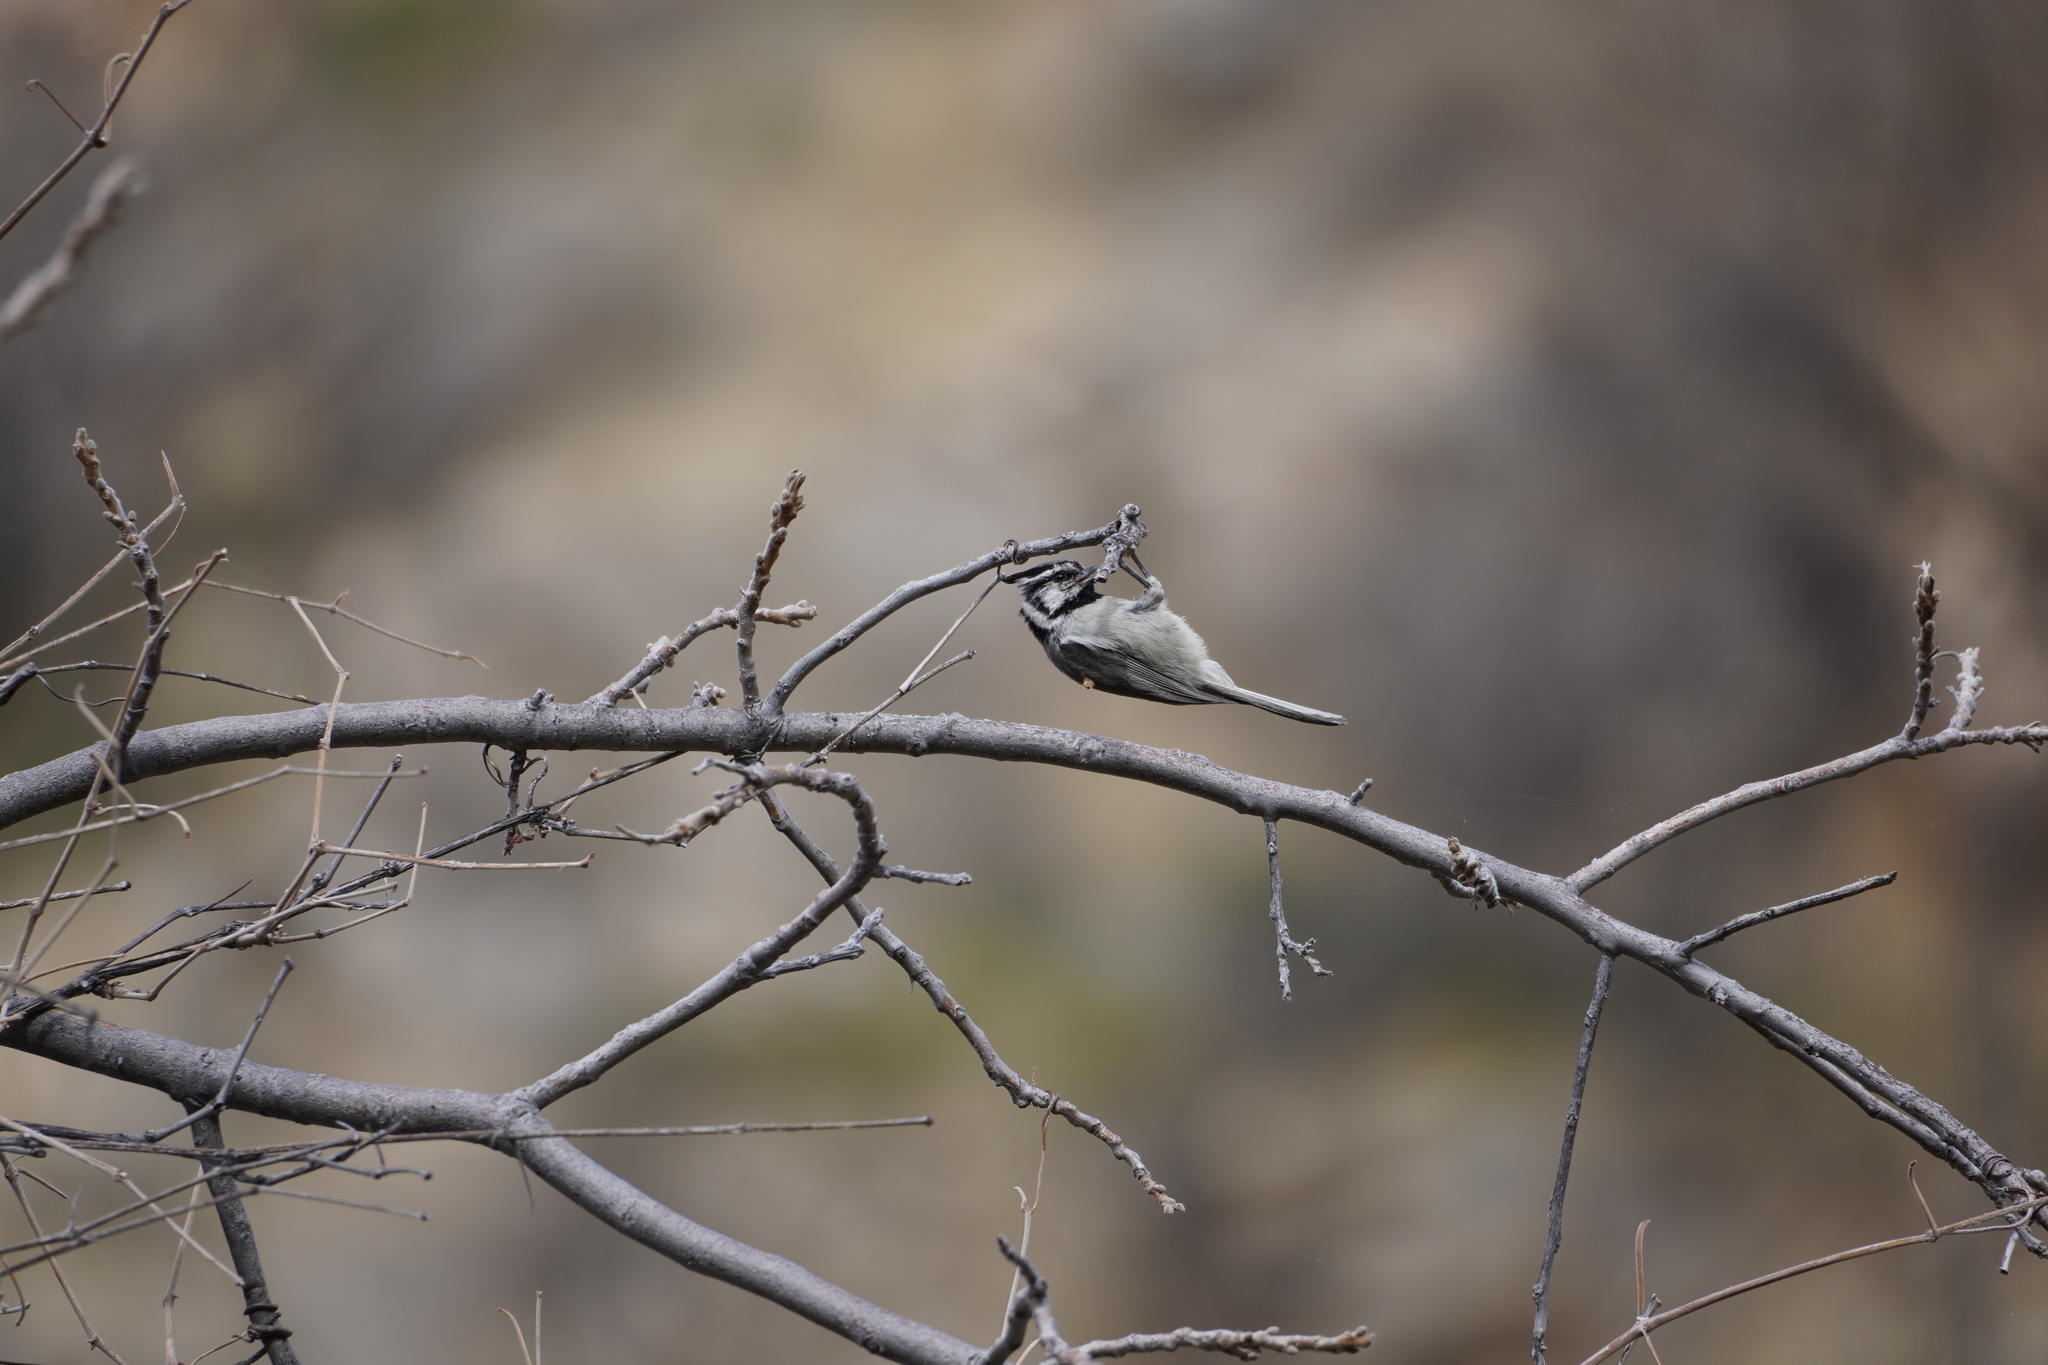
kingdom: Animalia
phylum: Chordata
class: Aves
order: Passeriformes
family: Paridae
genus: Baeolophus
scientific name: Baeolophus wollweberi
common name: Bridled titmouse
